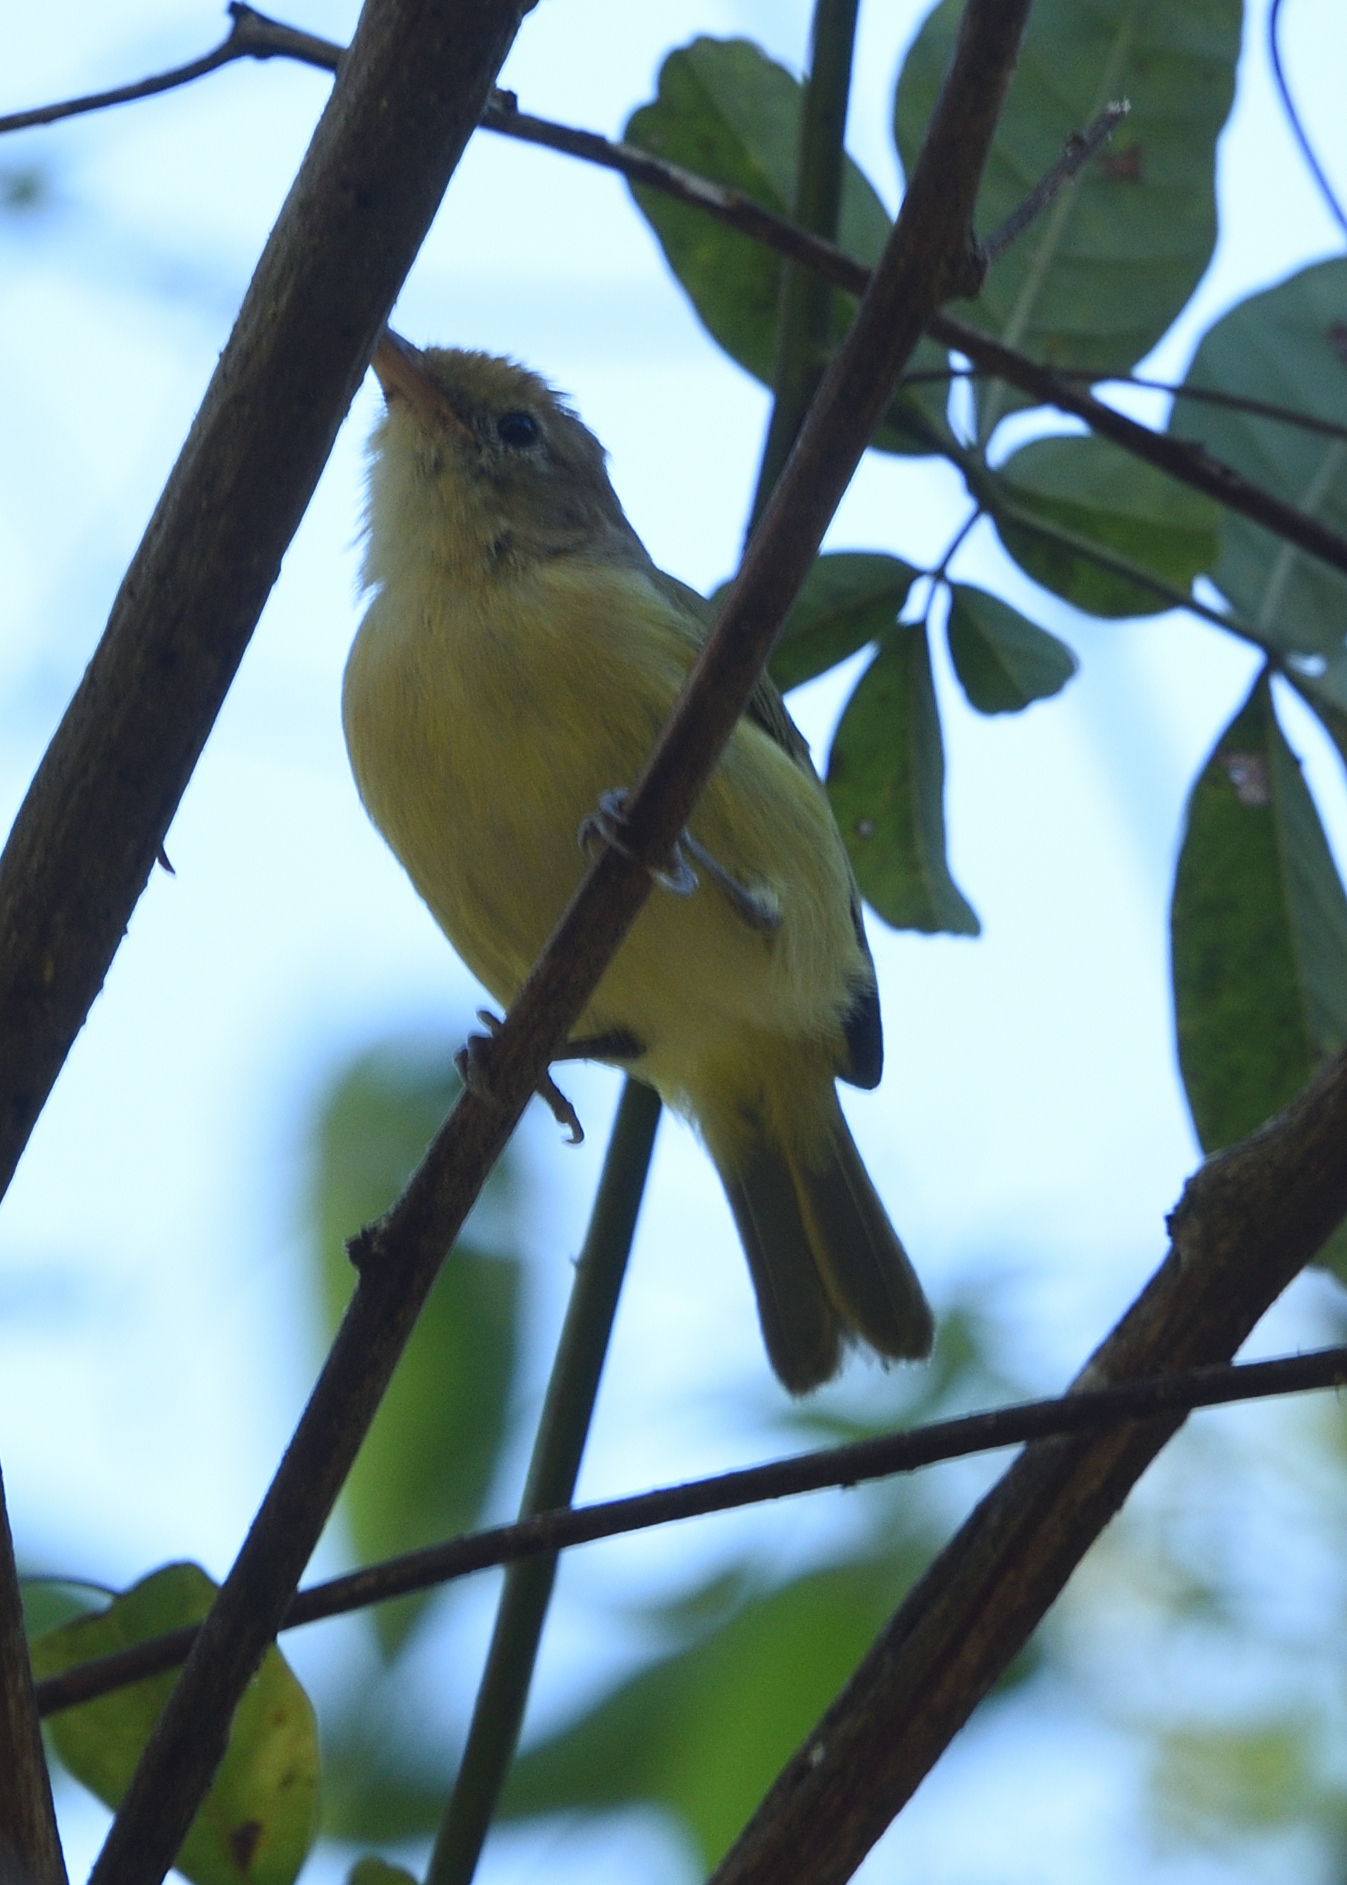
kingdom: Animalia
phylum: Chordata
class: Aves
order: Passeriformes
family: Vireonidae
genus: Hylophilus
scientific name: Hylophilus flavipes
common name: Scrub greenlet
